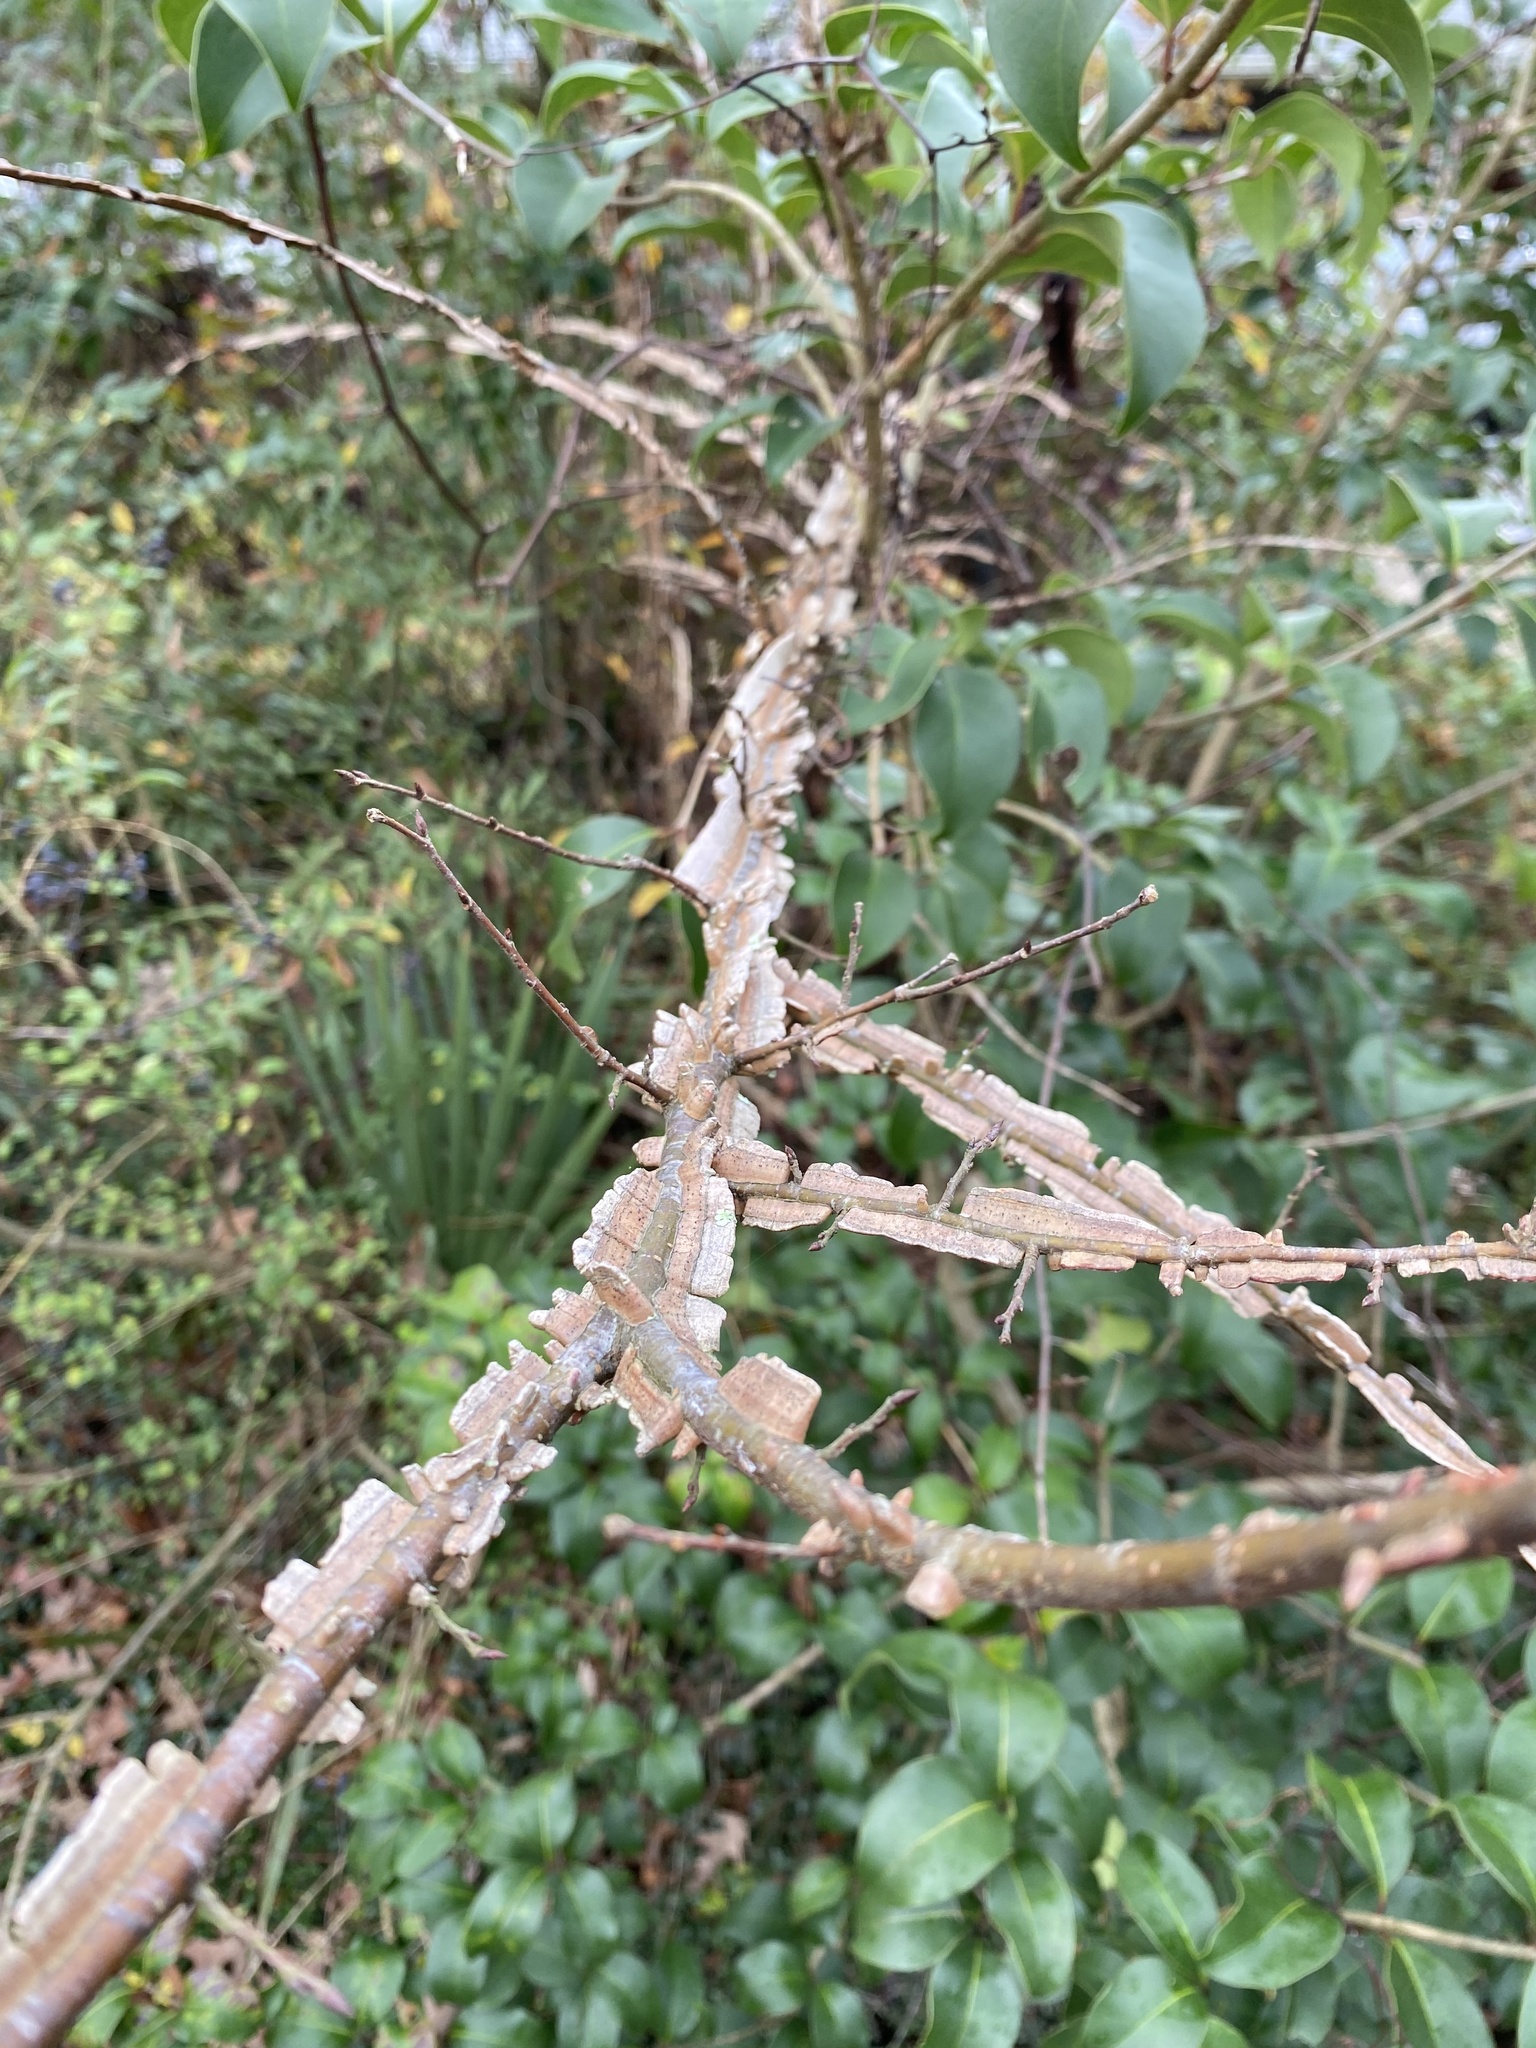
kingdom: Plantae
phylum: Tracheophyta
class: Magnoliopsida
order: Rosales
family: Ulmaceae
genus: Ulmus
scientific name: Ulmus alata
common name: Winged elm
